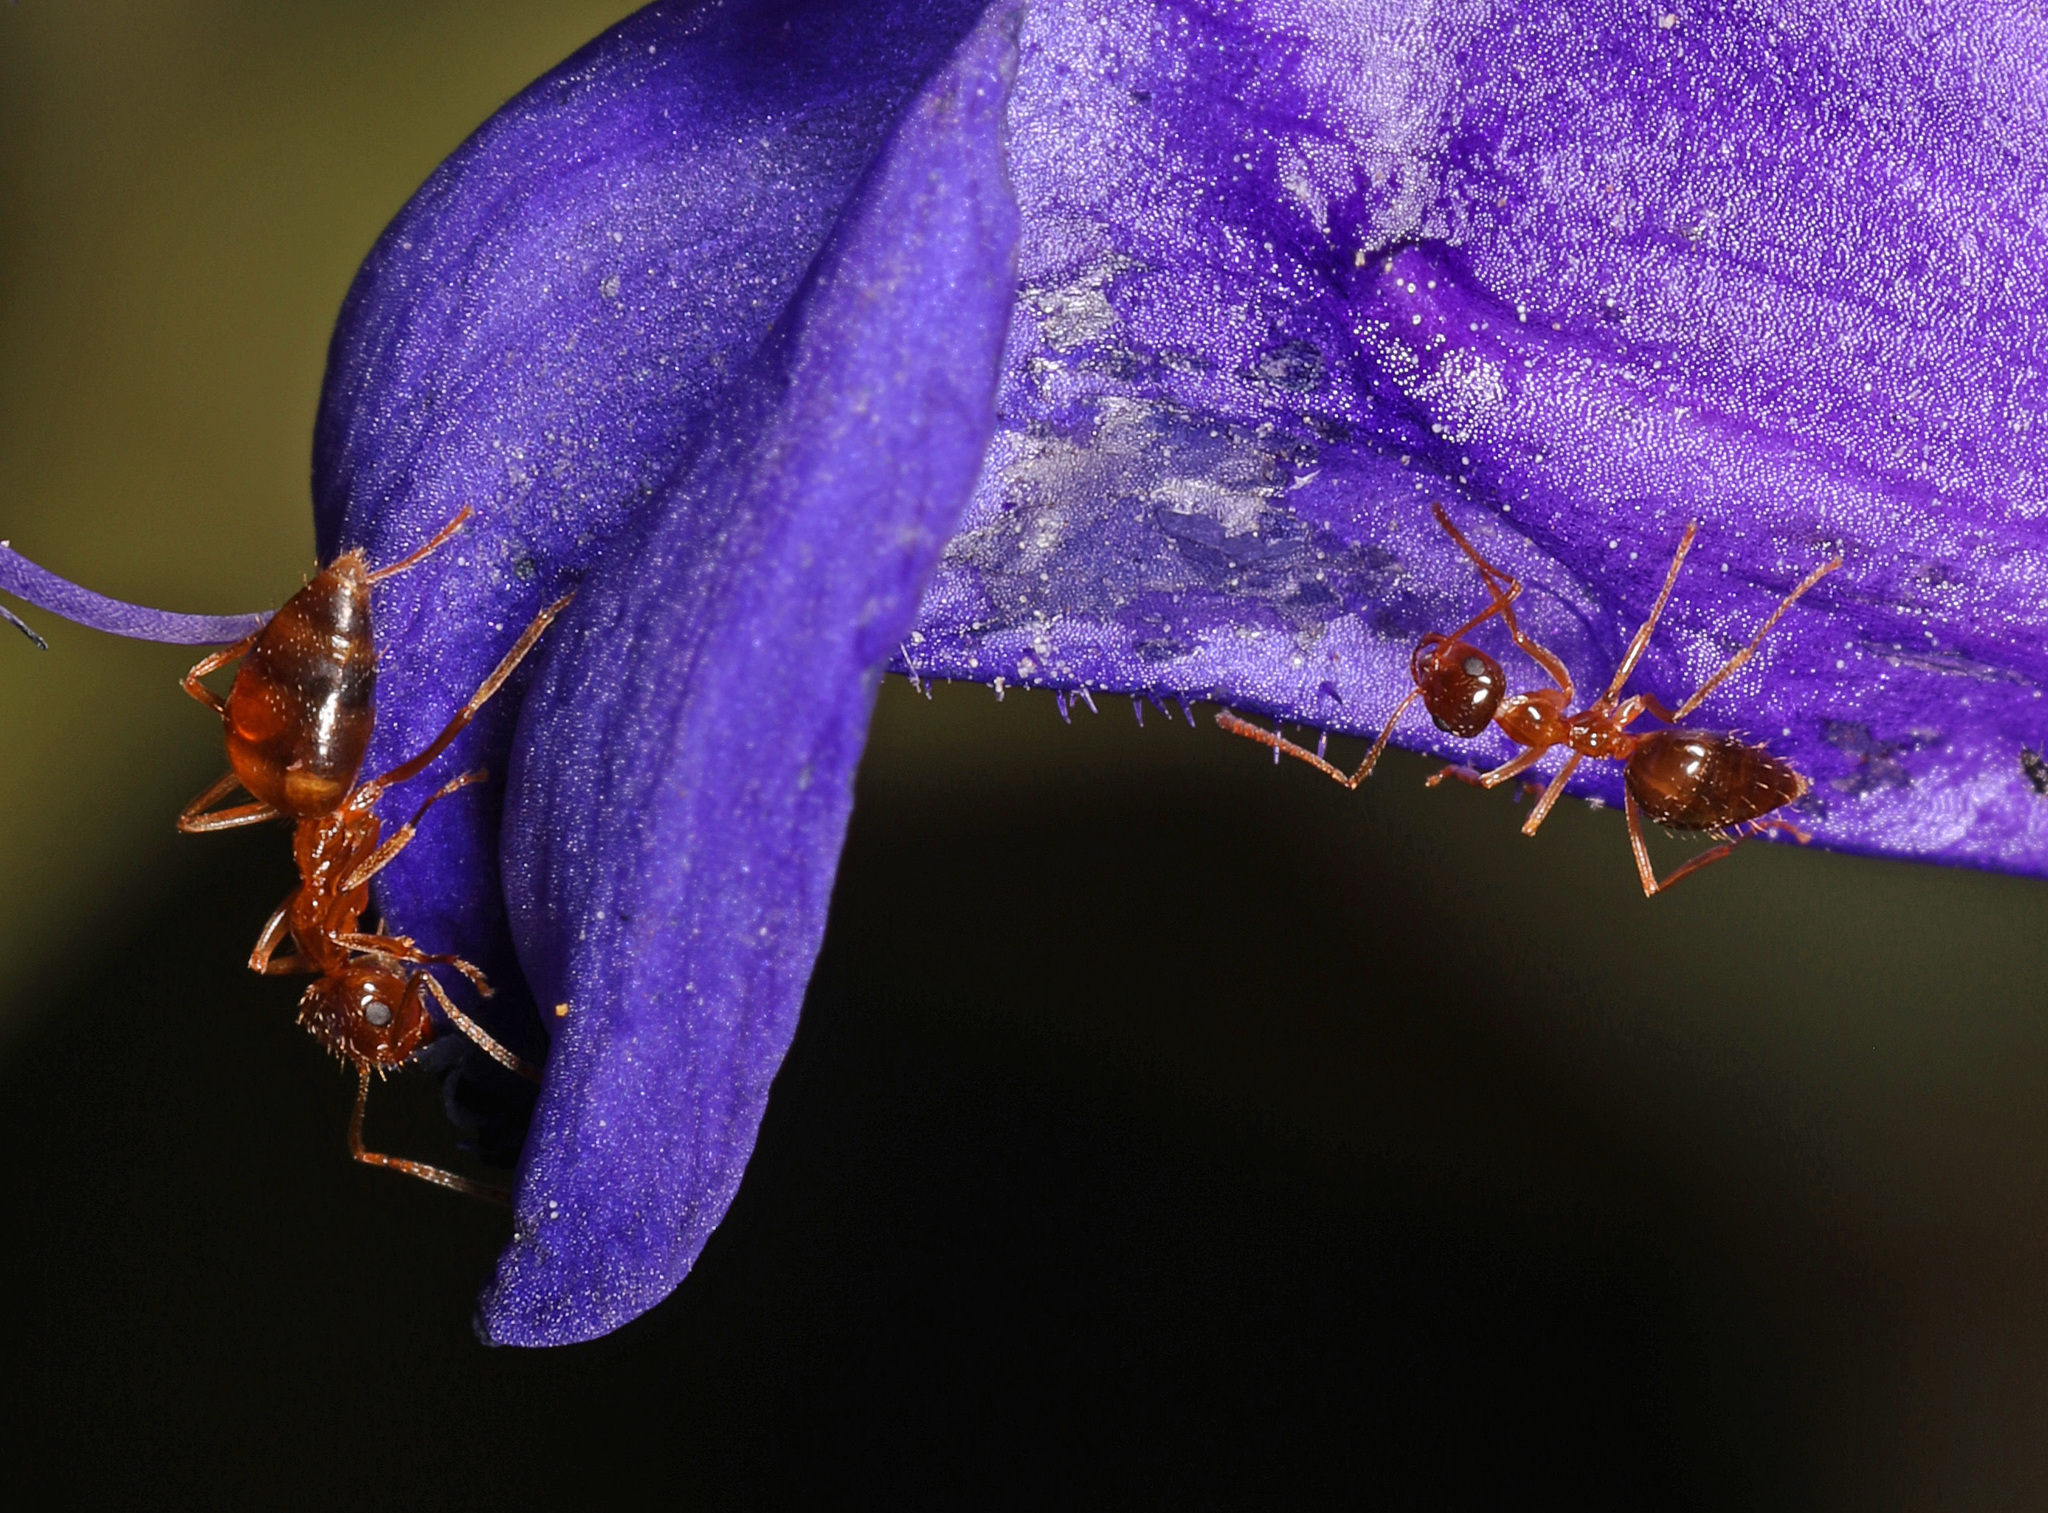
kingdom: Animalia
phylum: Arthropoda
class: Insecta
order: Hymenoptera
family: Formicidae
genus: Prenolepis
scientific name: Prenolepis imparis
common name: Small honey ant
